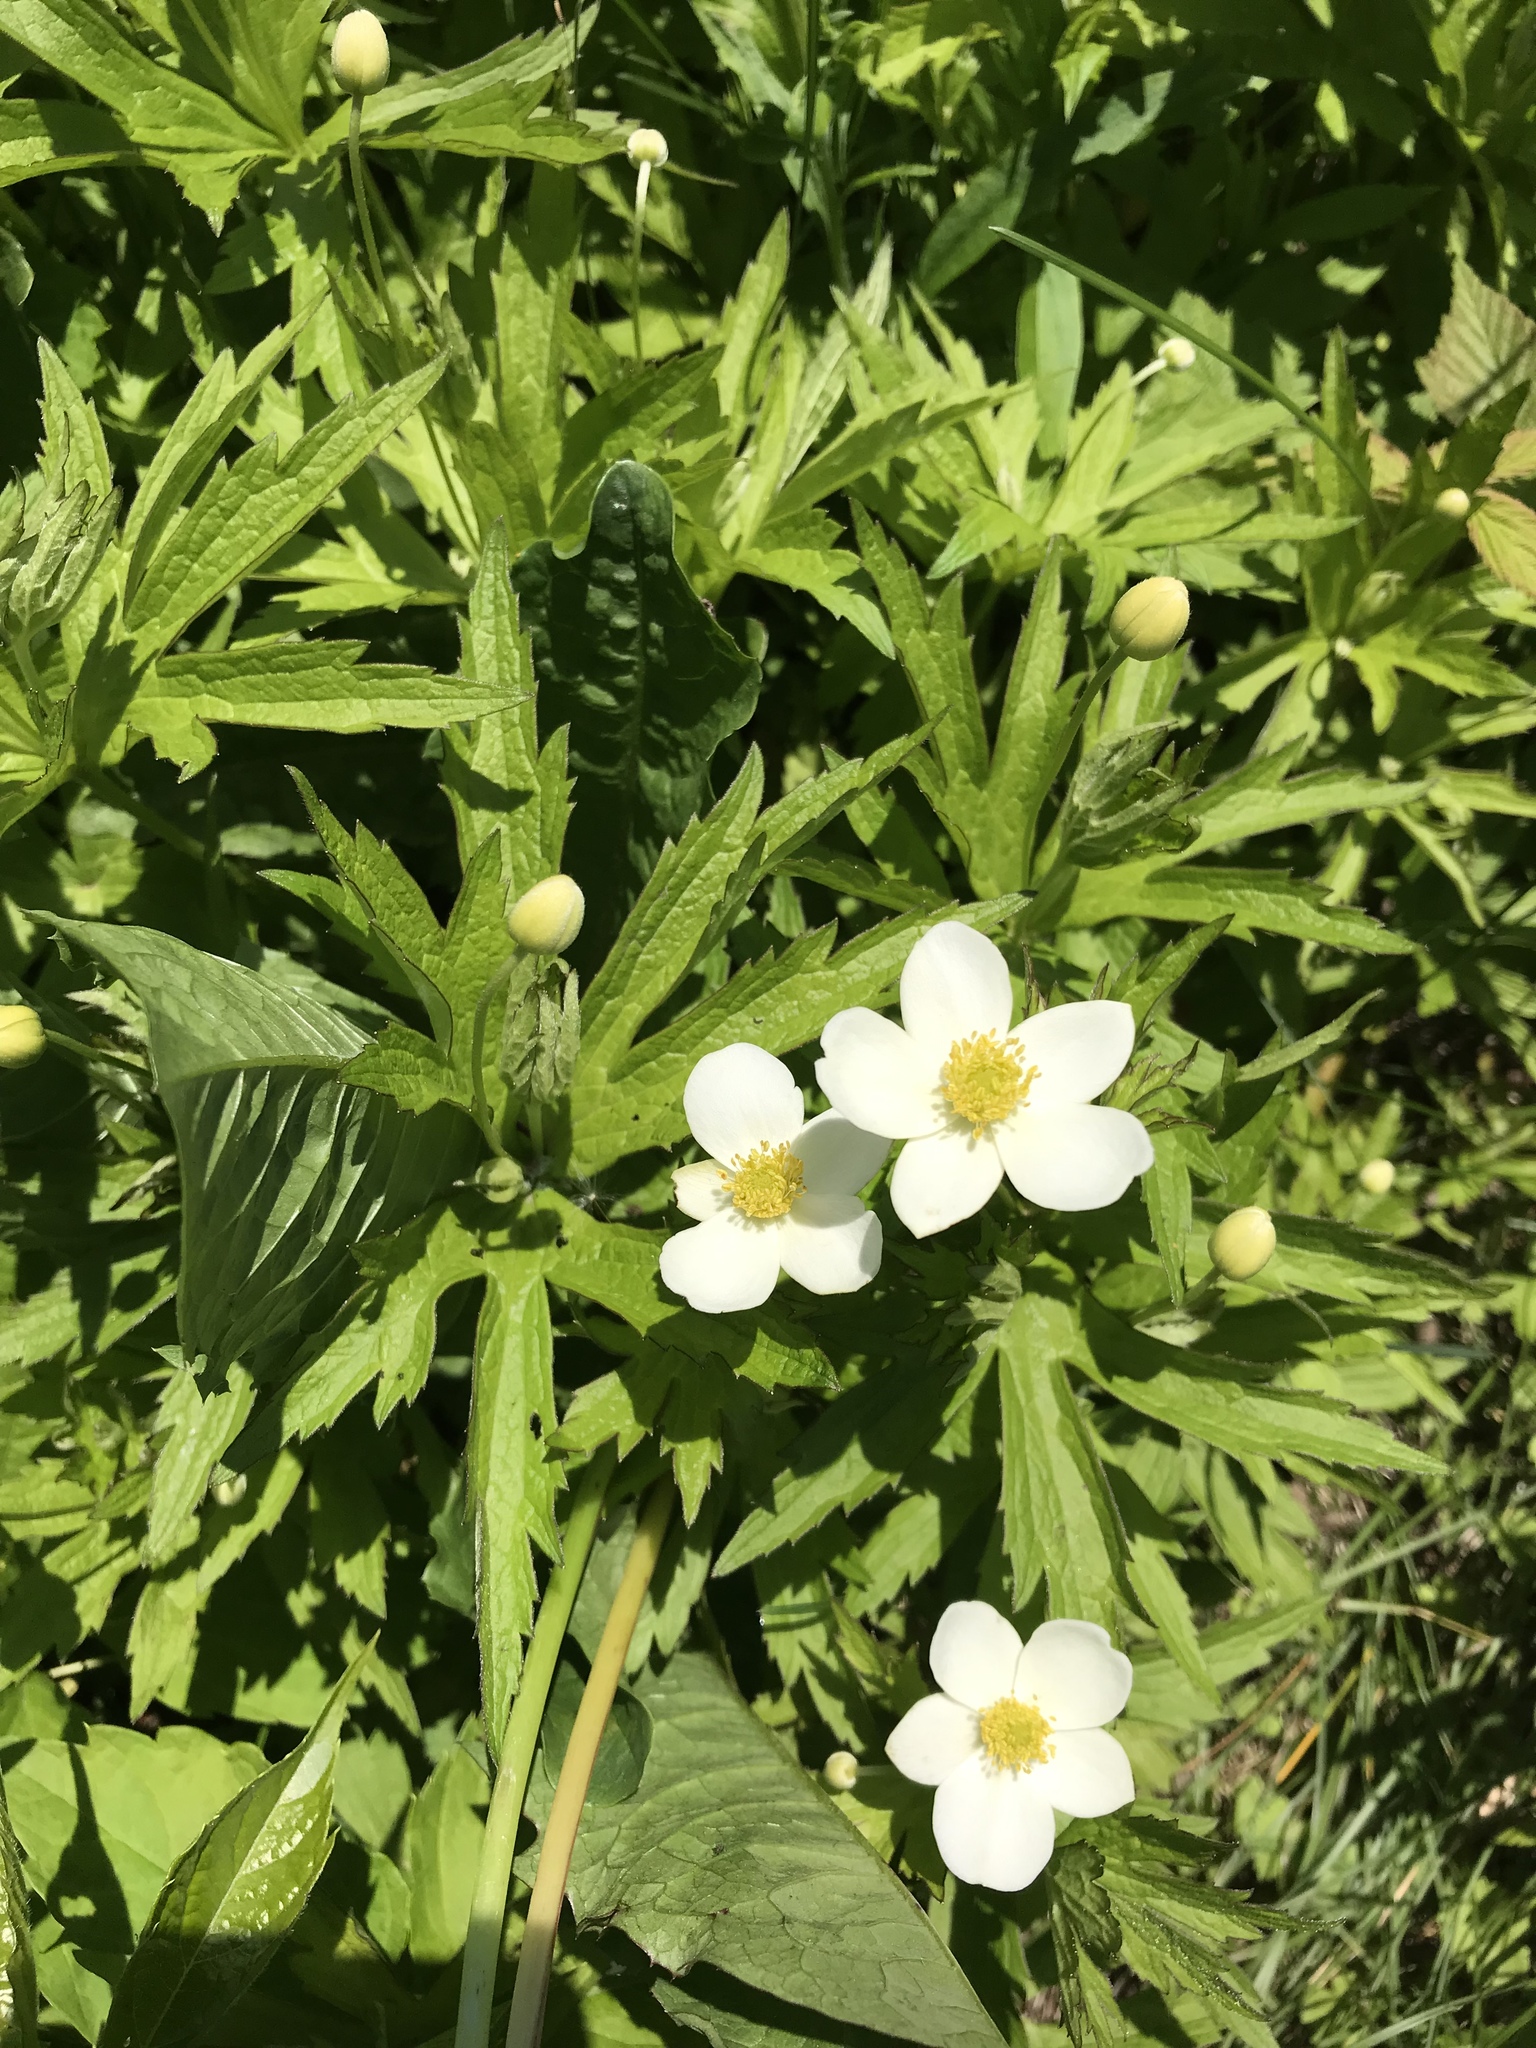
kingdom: Plantae
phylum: Tracheophyta
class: Magnoliopsida
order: Ranunculales
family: Ranunculaceae
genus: Anemonastrum
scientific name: Anemonastrum canadense
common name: Canada anemone
